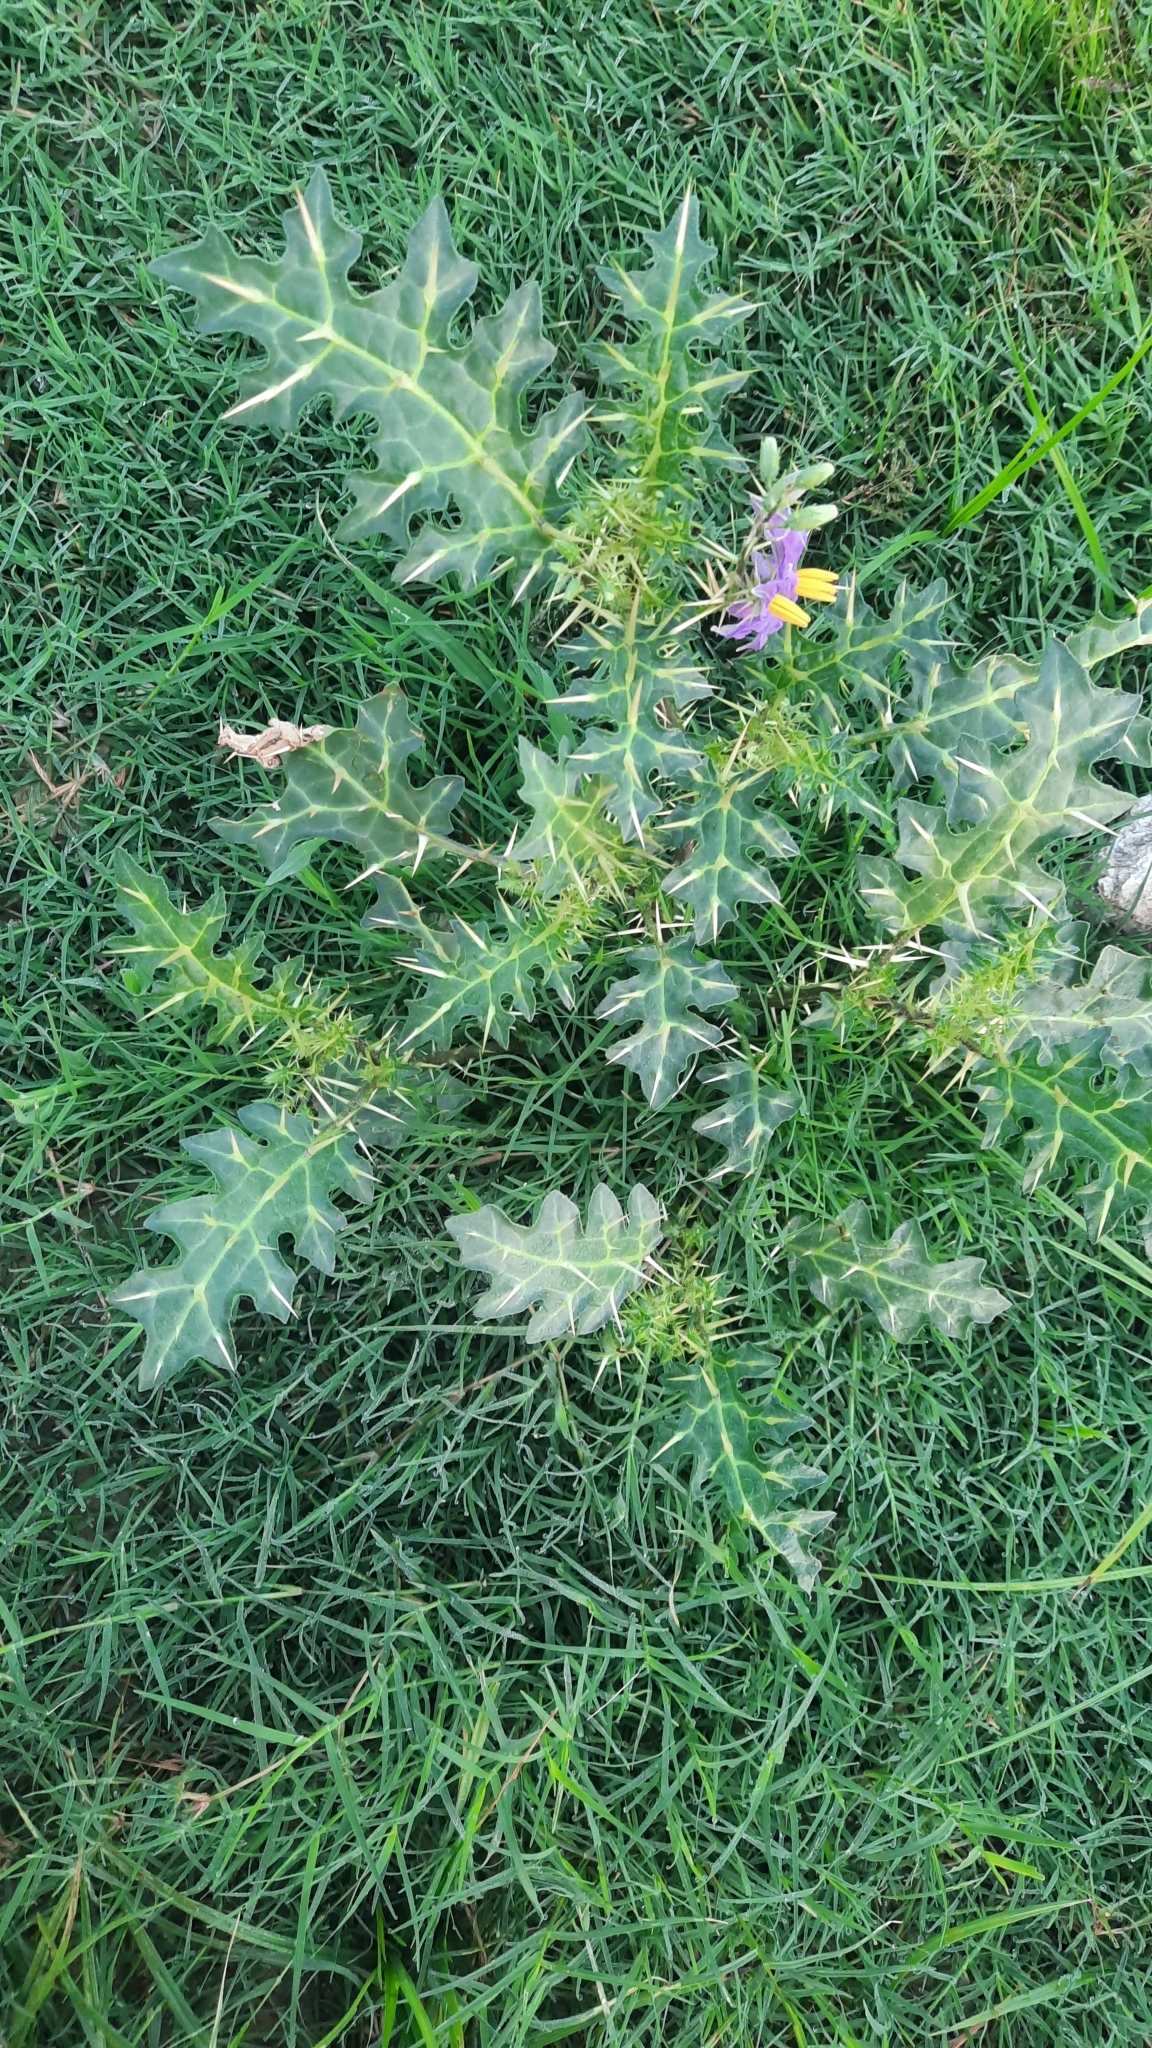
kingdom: Plantae
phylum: Tracheophyta
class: Magnoliopsida
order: Solanales
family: Solanaceae
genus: Solanum
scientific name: Solanum virginianum
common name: Surattense nightshade
